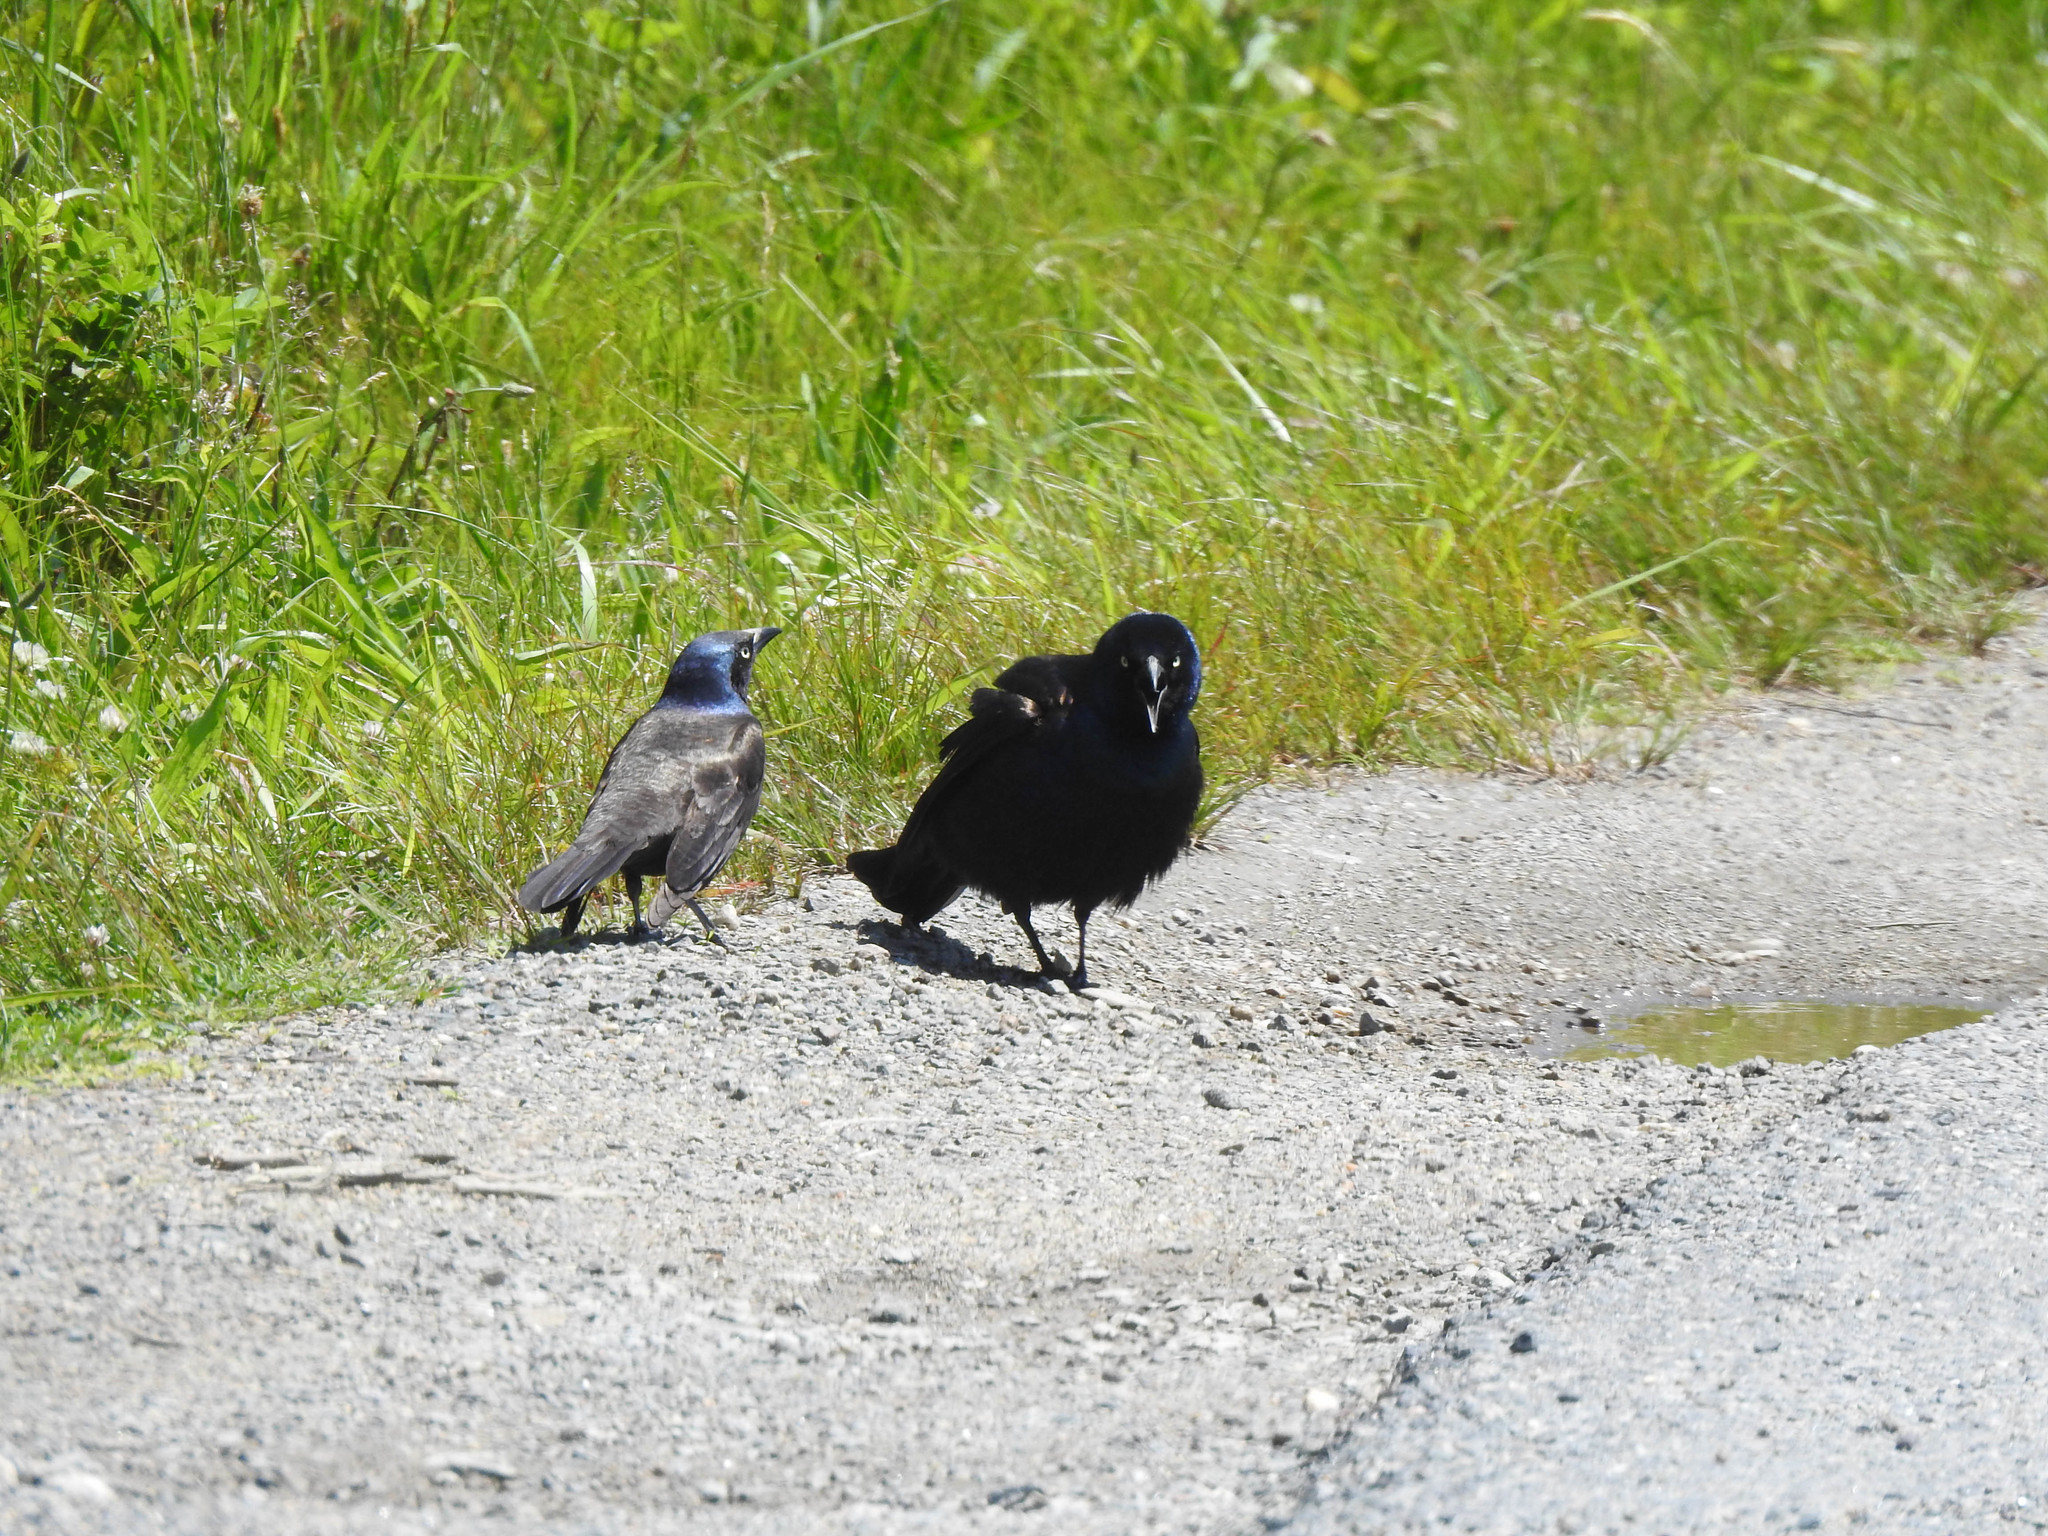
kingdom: Animalia
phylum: Chordata
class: Aves
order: Passeriformes
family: Icteridae
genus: Quiscalus
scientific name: Quiscalus quiscula
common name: Common grackle
